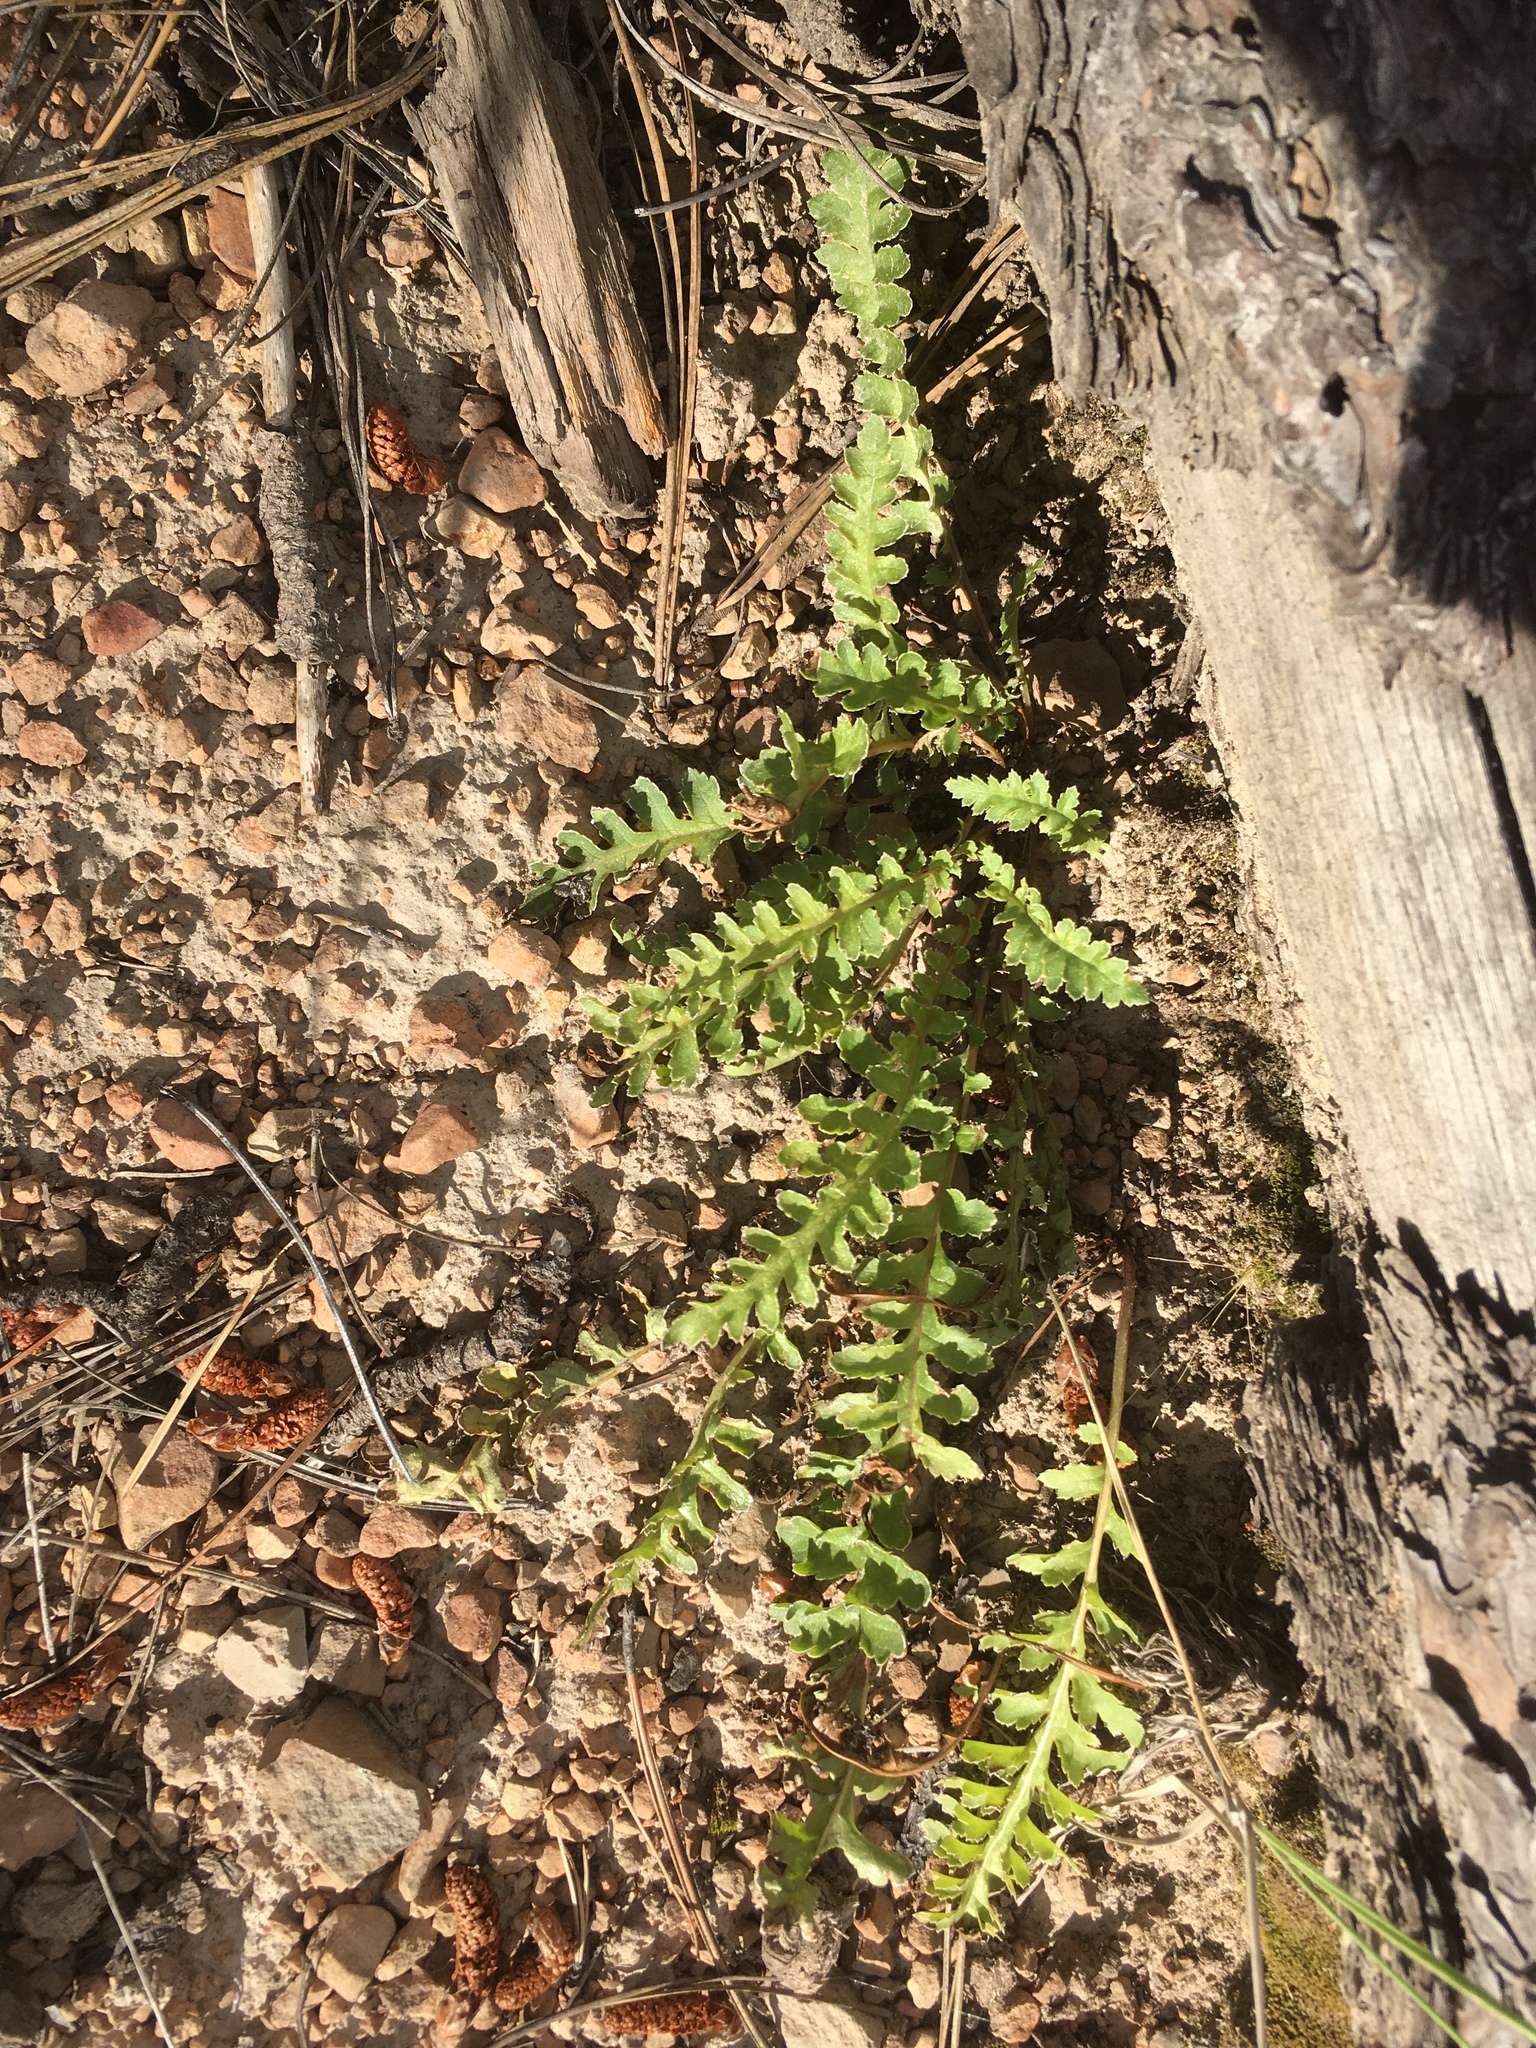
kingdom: Plantae
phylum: Tracheophyta
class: Magnoliopsida
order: Lamiales
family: Orobanchaceae
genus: Pedicularis
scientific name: Pedicularis centranthera
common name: Dwarf lousewort
